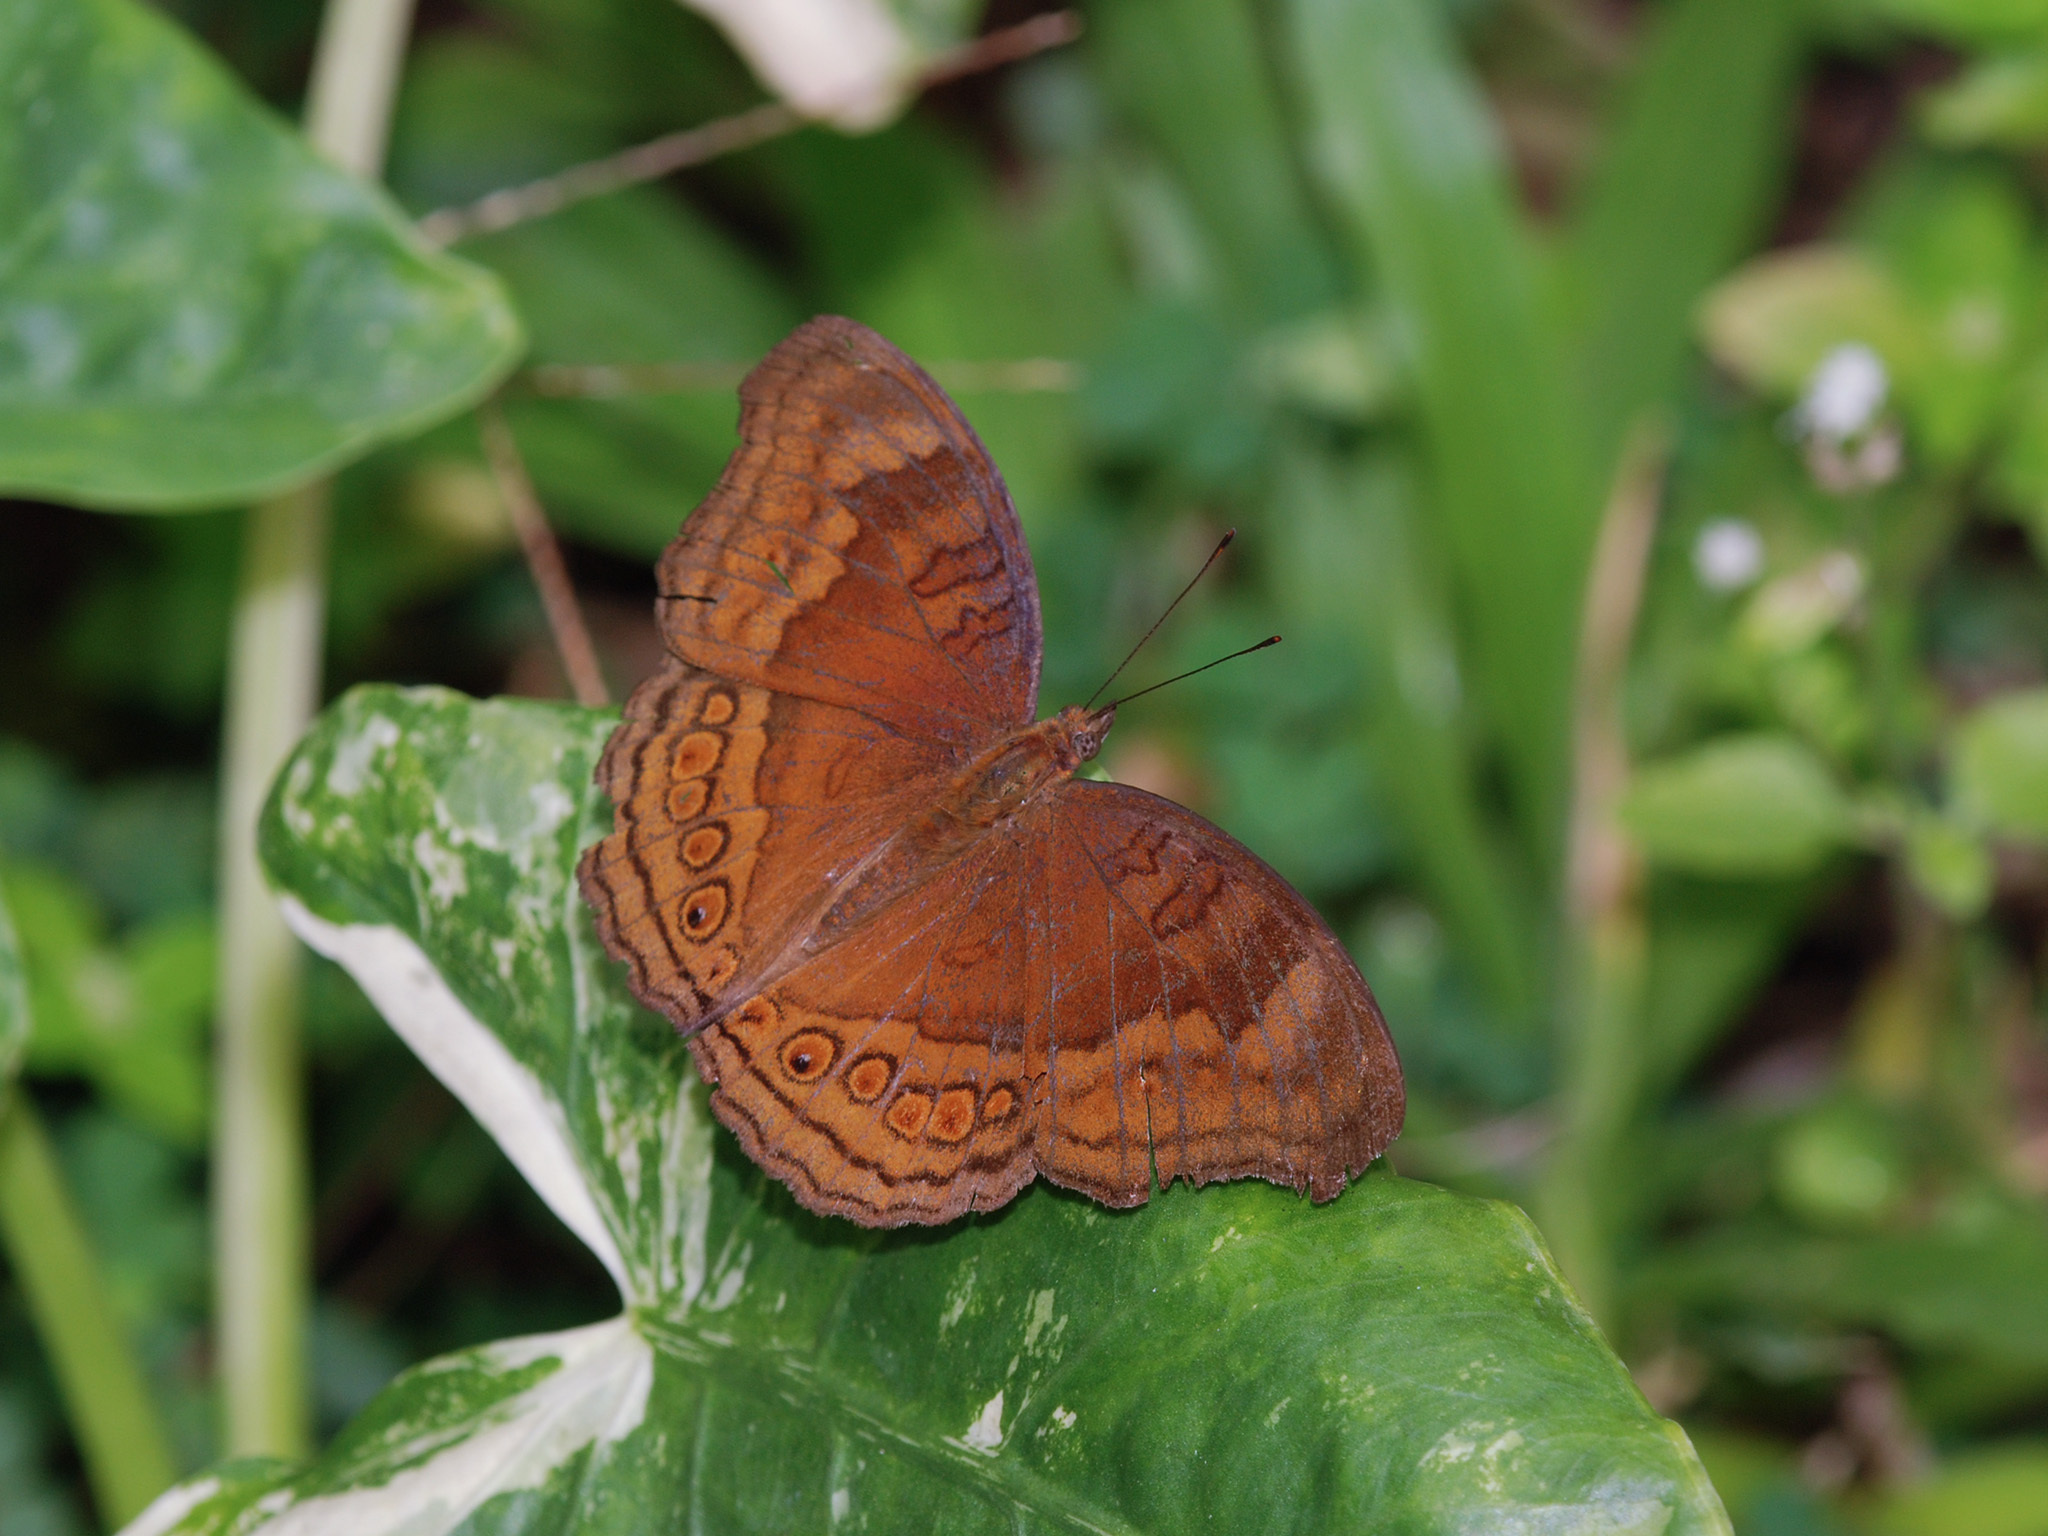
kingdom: Animalia
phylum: Arthropoda
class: Insecta
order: Lepidoptera
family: Nymphalidae
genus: Junonia
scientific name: Junonia hedonia
